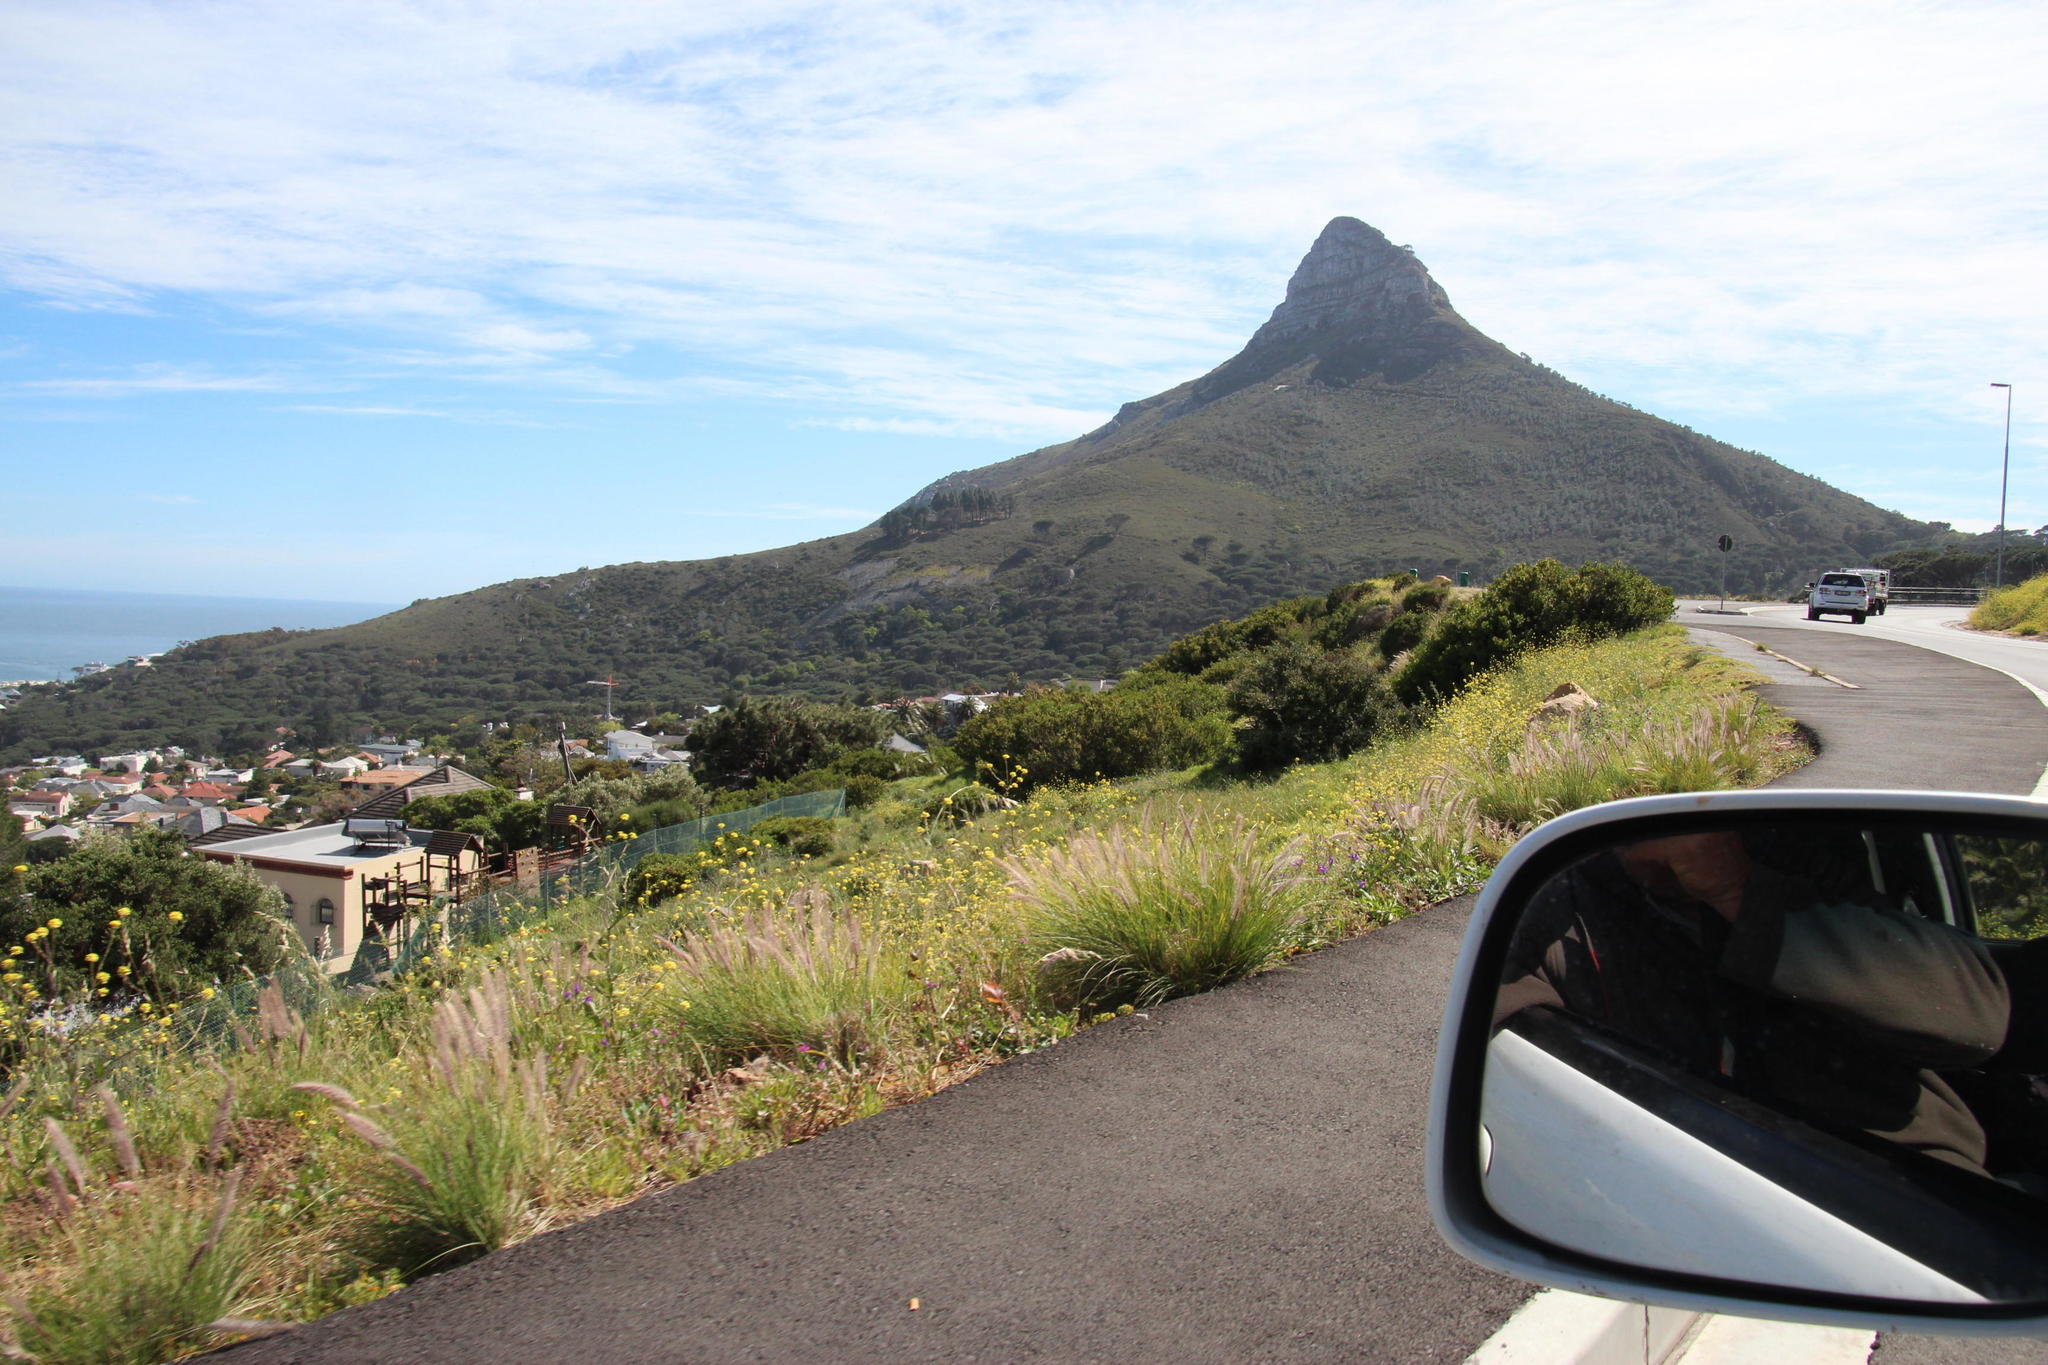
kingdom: Plantae
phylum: Tracheophyta
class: Liliopsida
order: Poales
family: Poaceae
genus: Cenchrus
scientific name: Cenchrus setaceus
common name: Crimson fountaingrass
